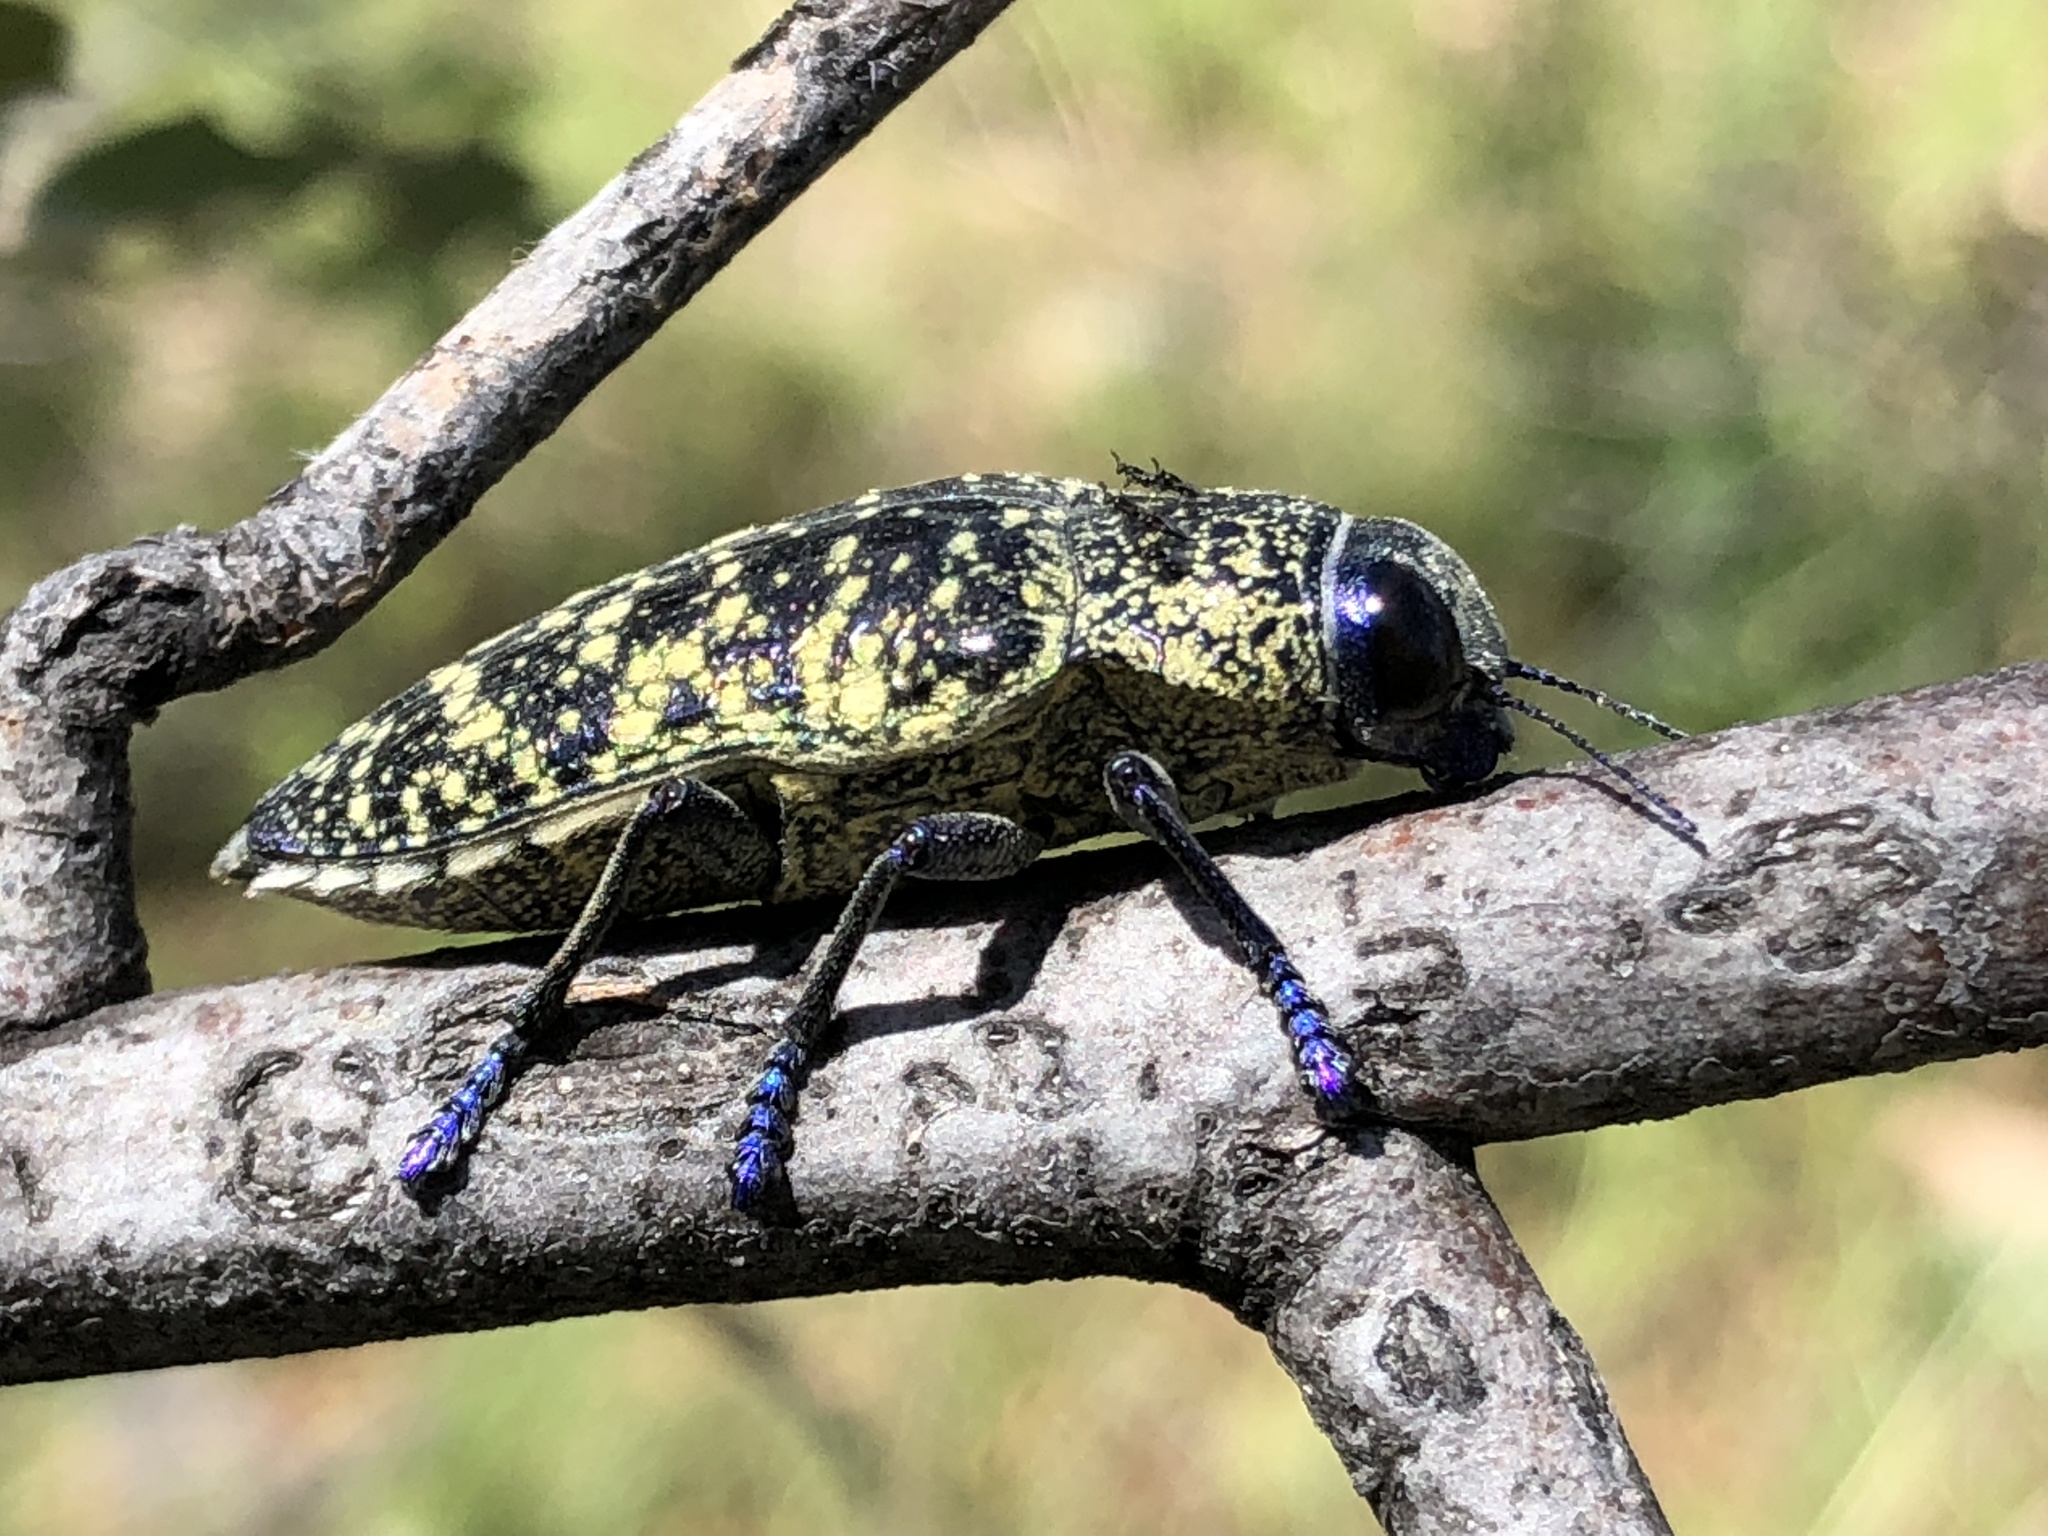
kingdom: Animalia
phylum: Arthropoda
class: Insecta
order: Coleoptera
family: Buprestidae
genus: Lampetis
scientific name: Lampetis webbii
